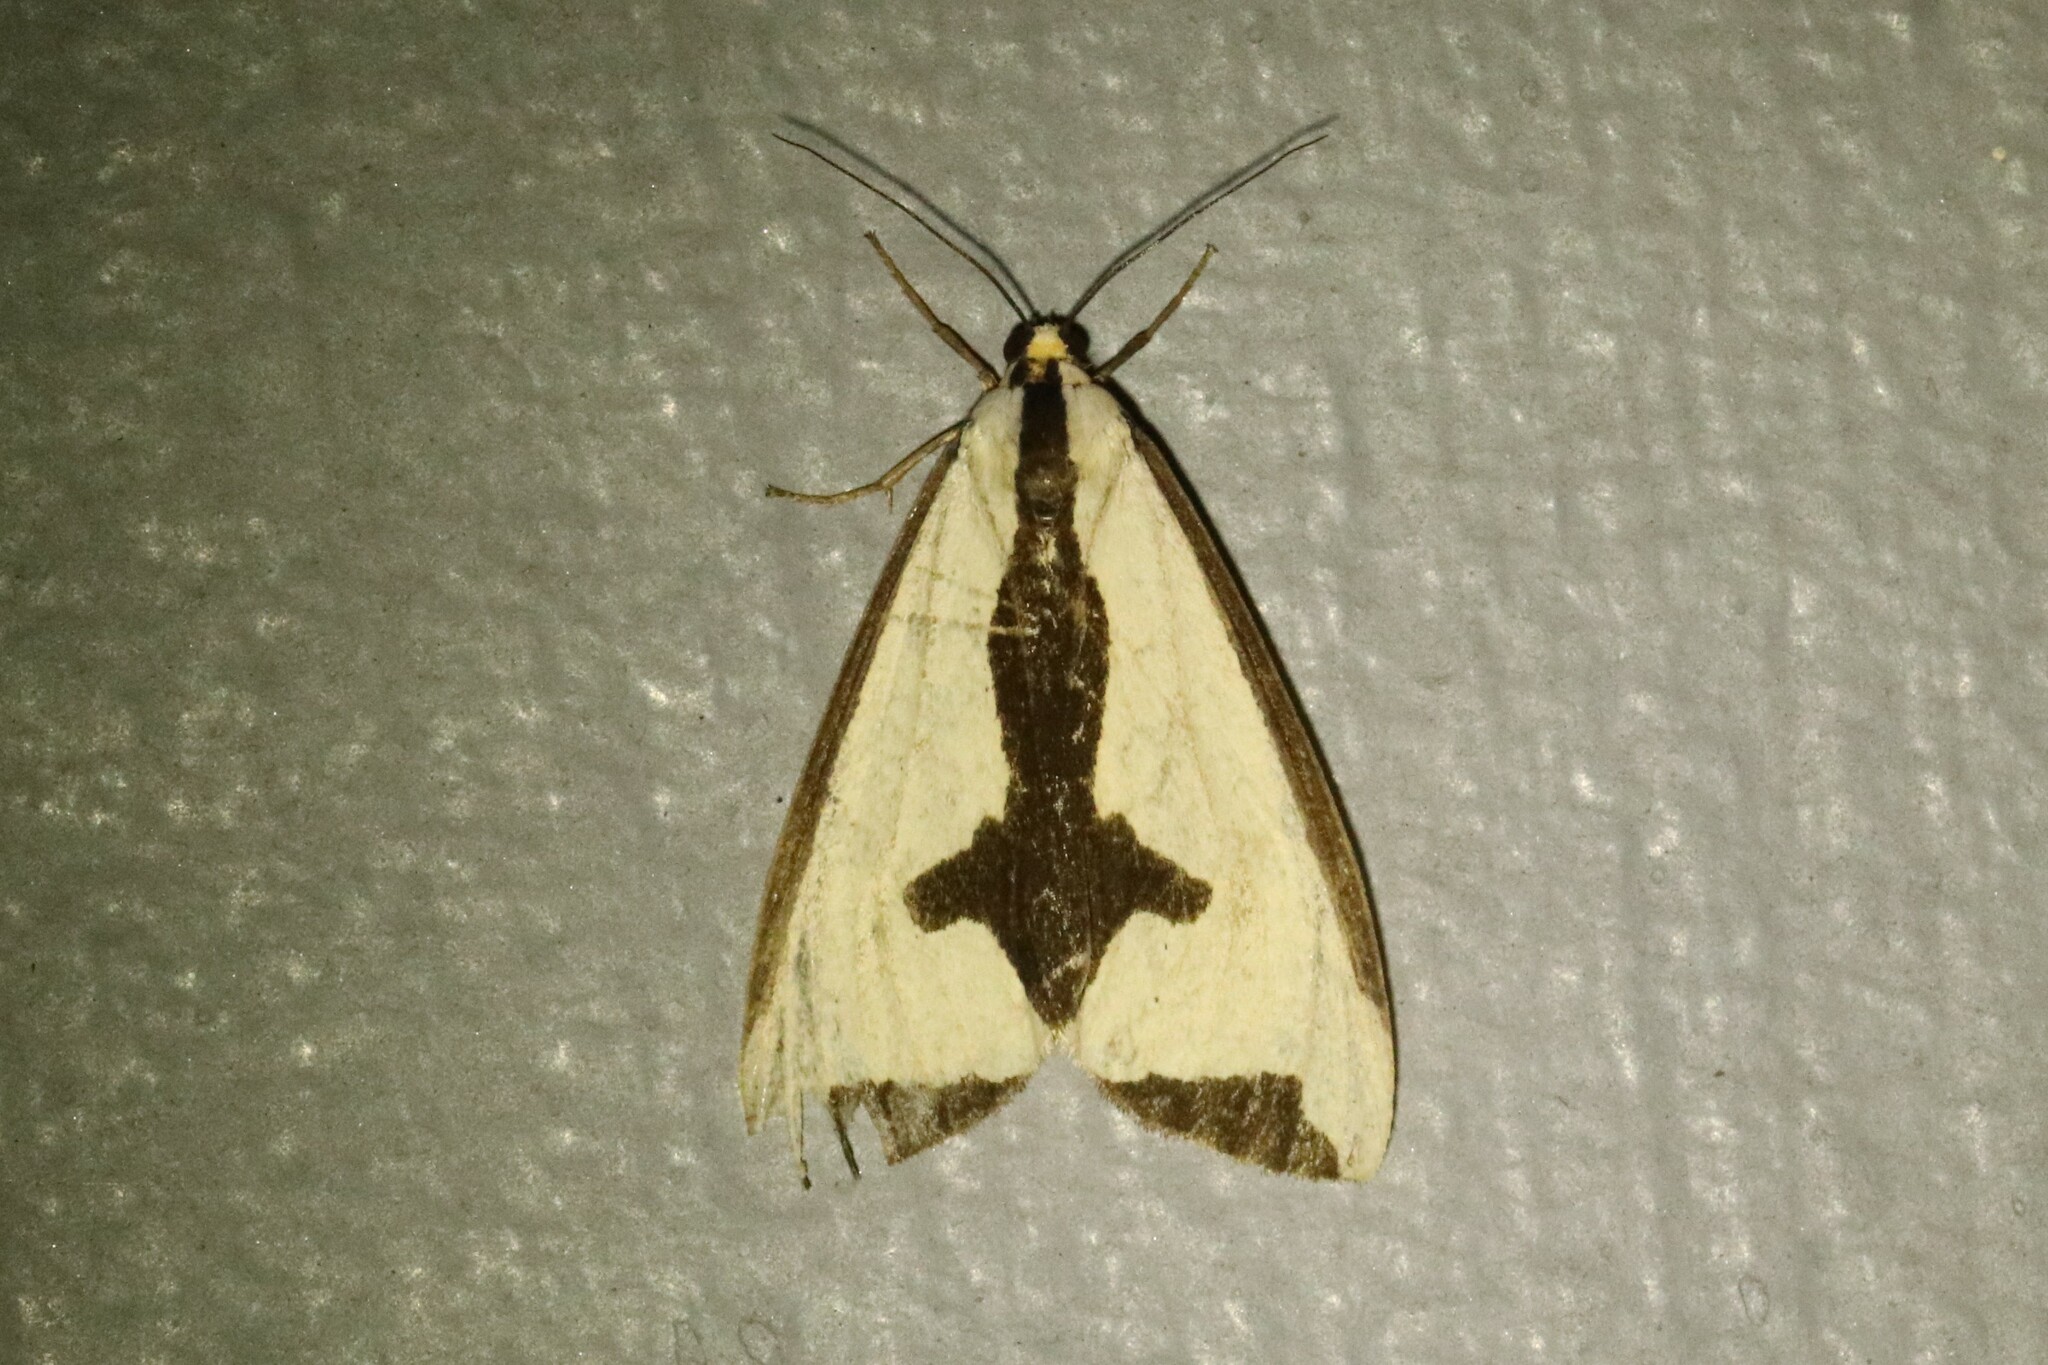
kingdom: Animalia
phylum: Arthropoda
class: Insecta
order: Lepidoptera
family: Erebidae
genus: Haploa
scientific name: Haploa clymene
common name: Clymene moth
